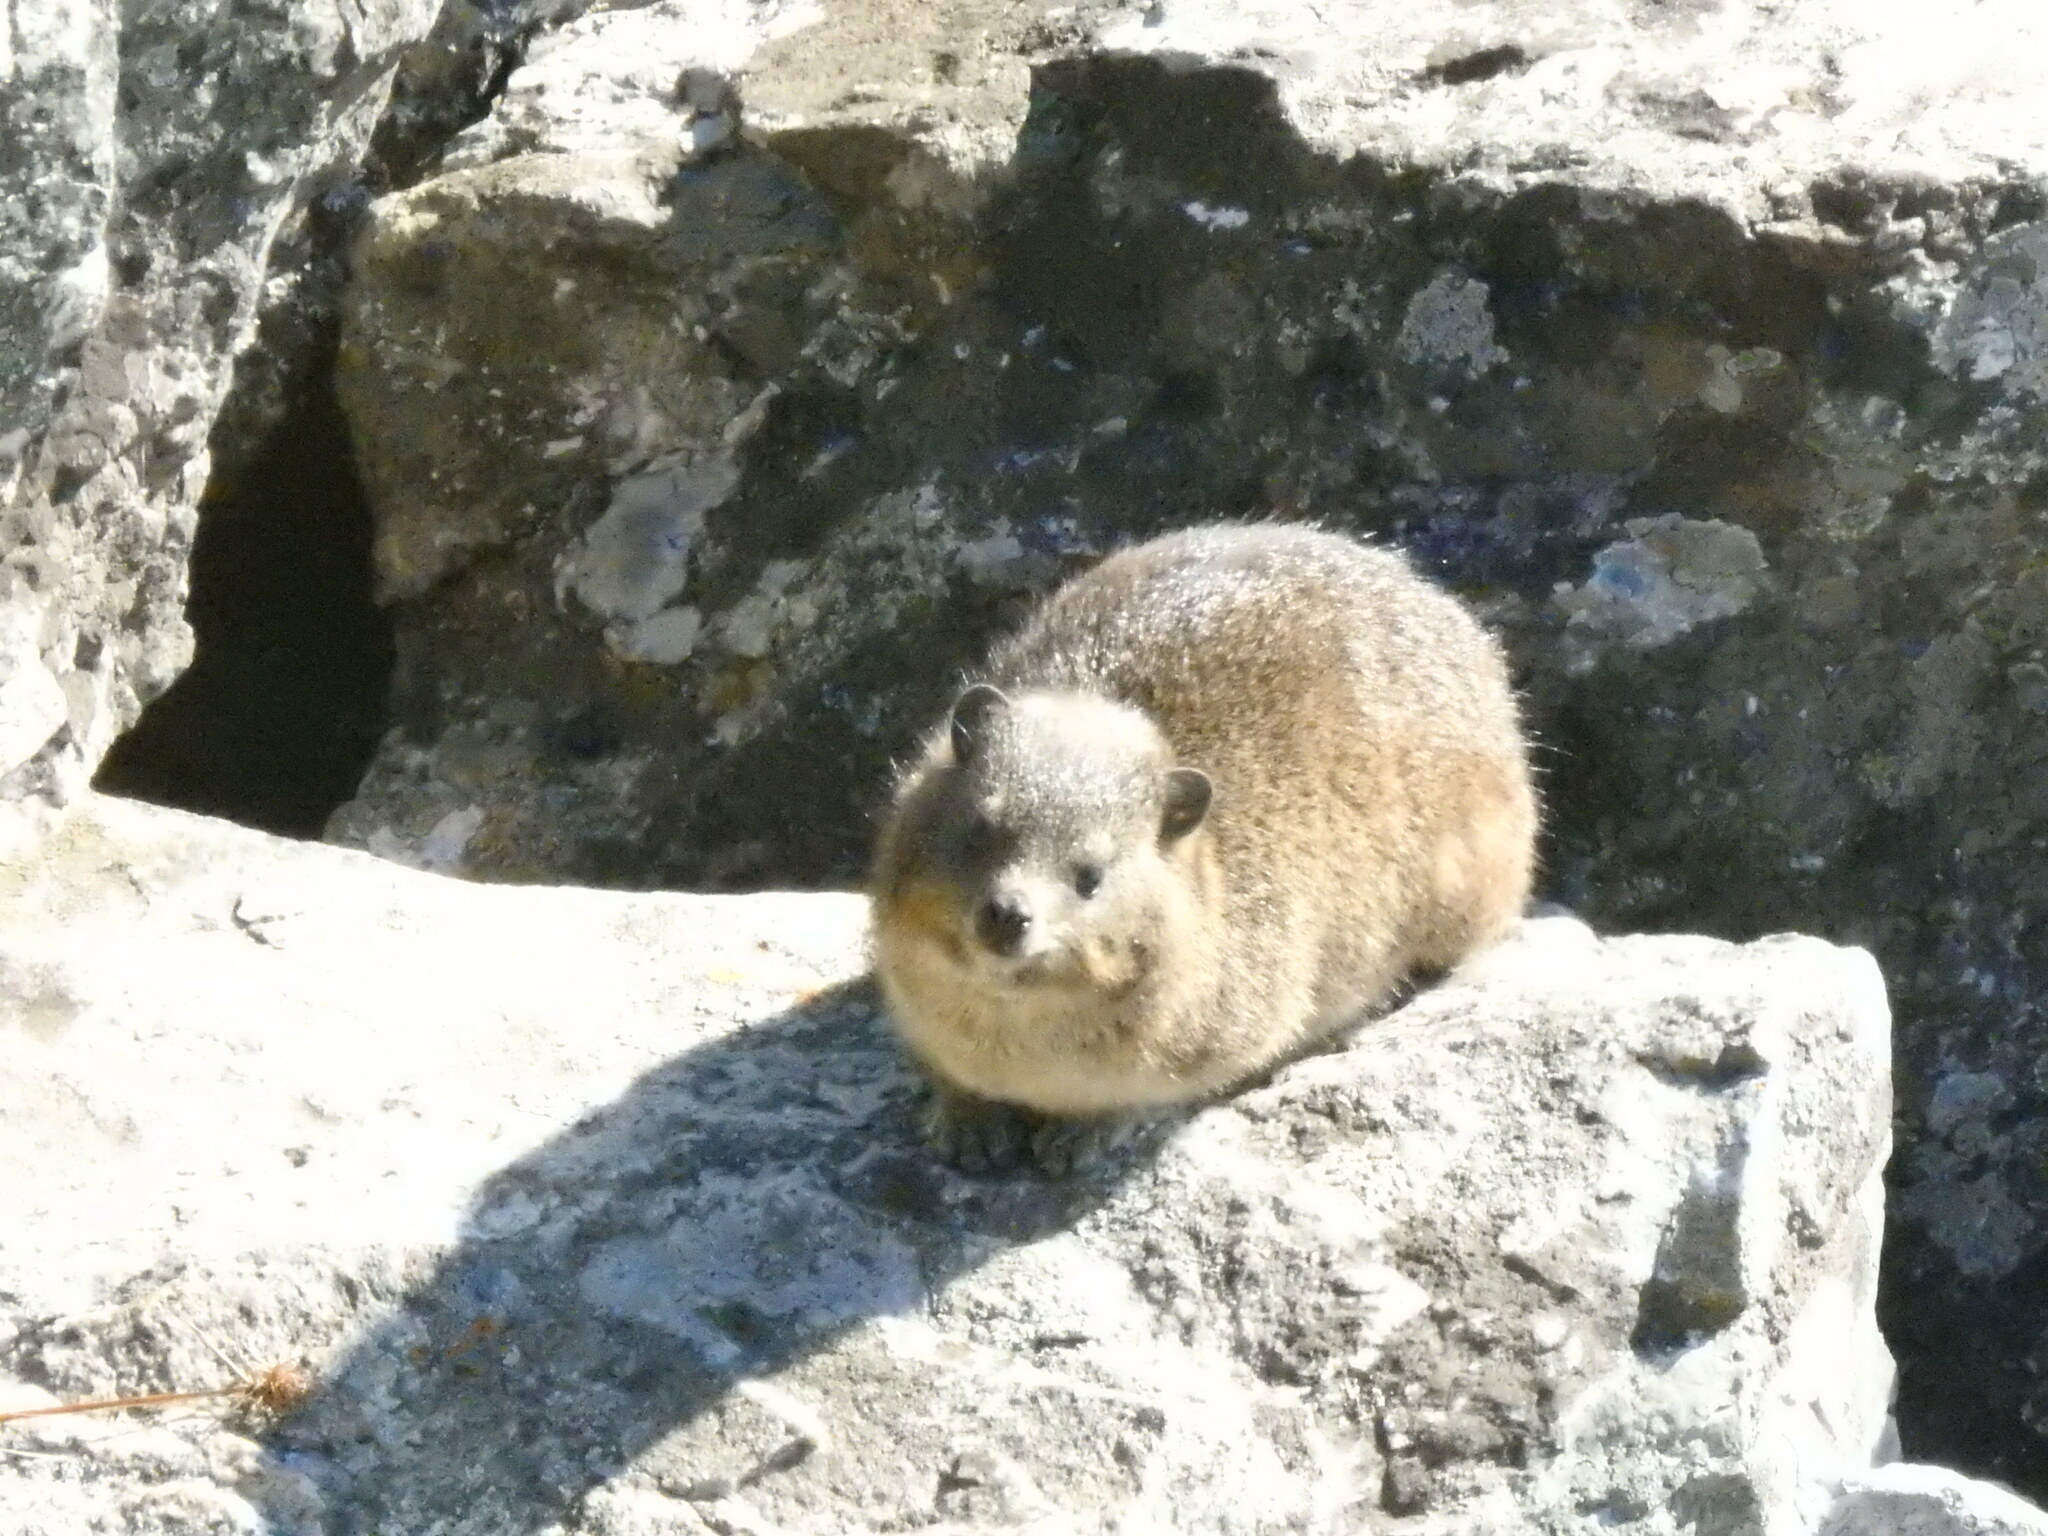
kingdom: Animalia
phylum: Chordata
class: Mammalia
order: Hyracoidea
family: Procaviidae
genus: Procavia
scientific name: Procavia capensis
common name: Rock hyrax
